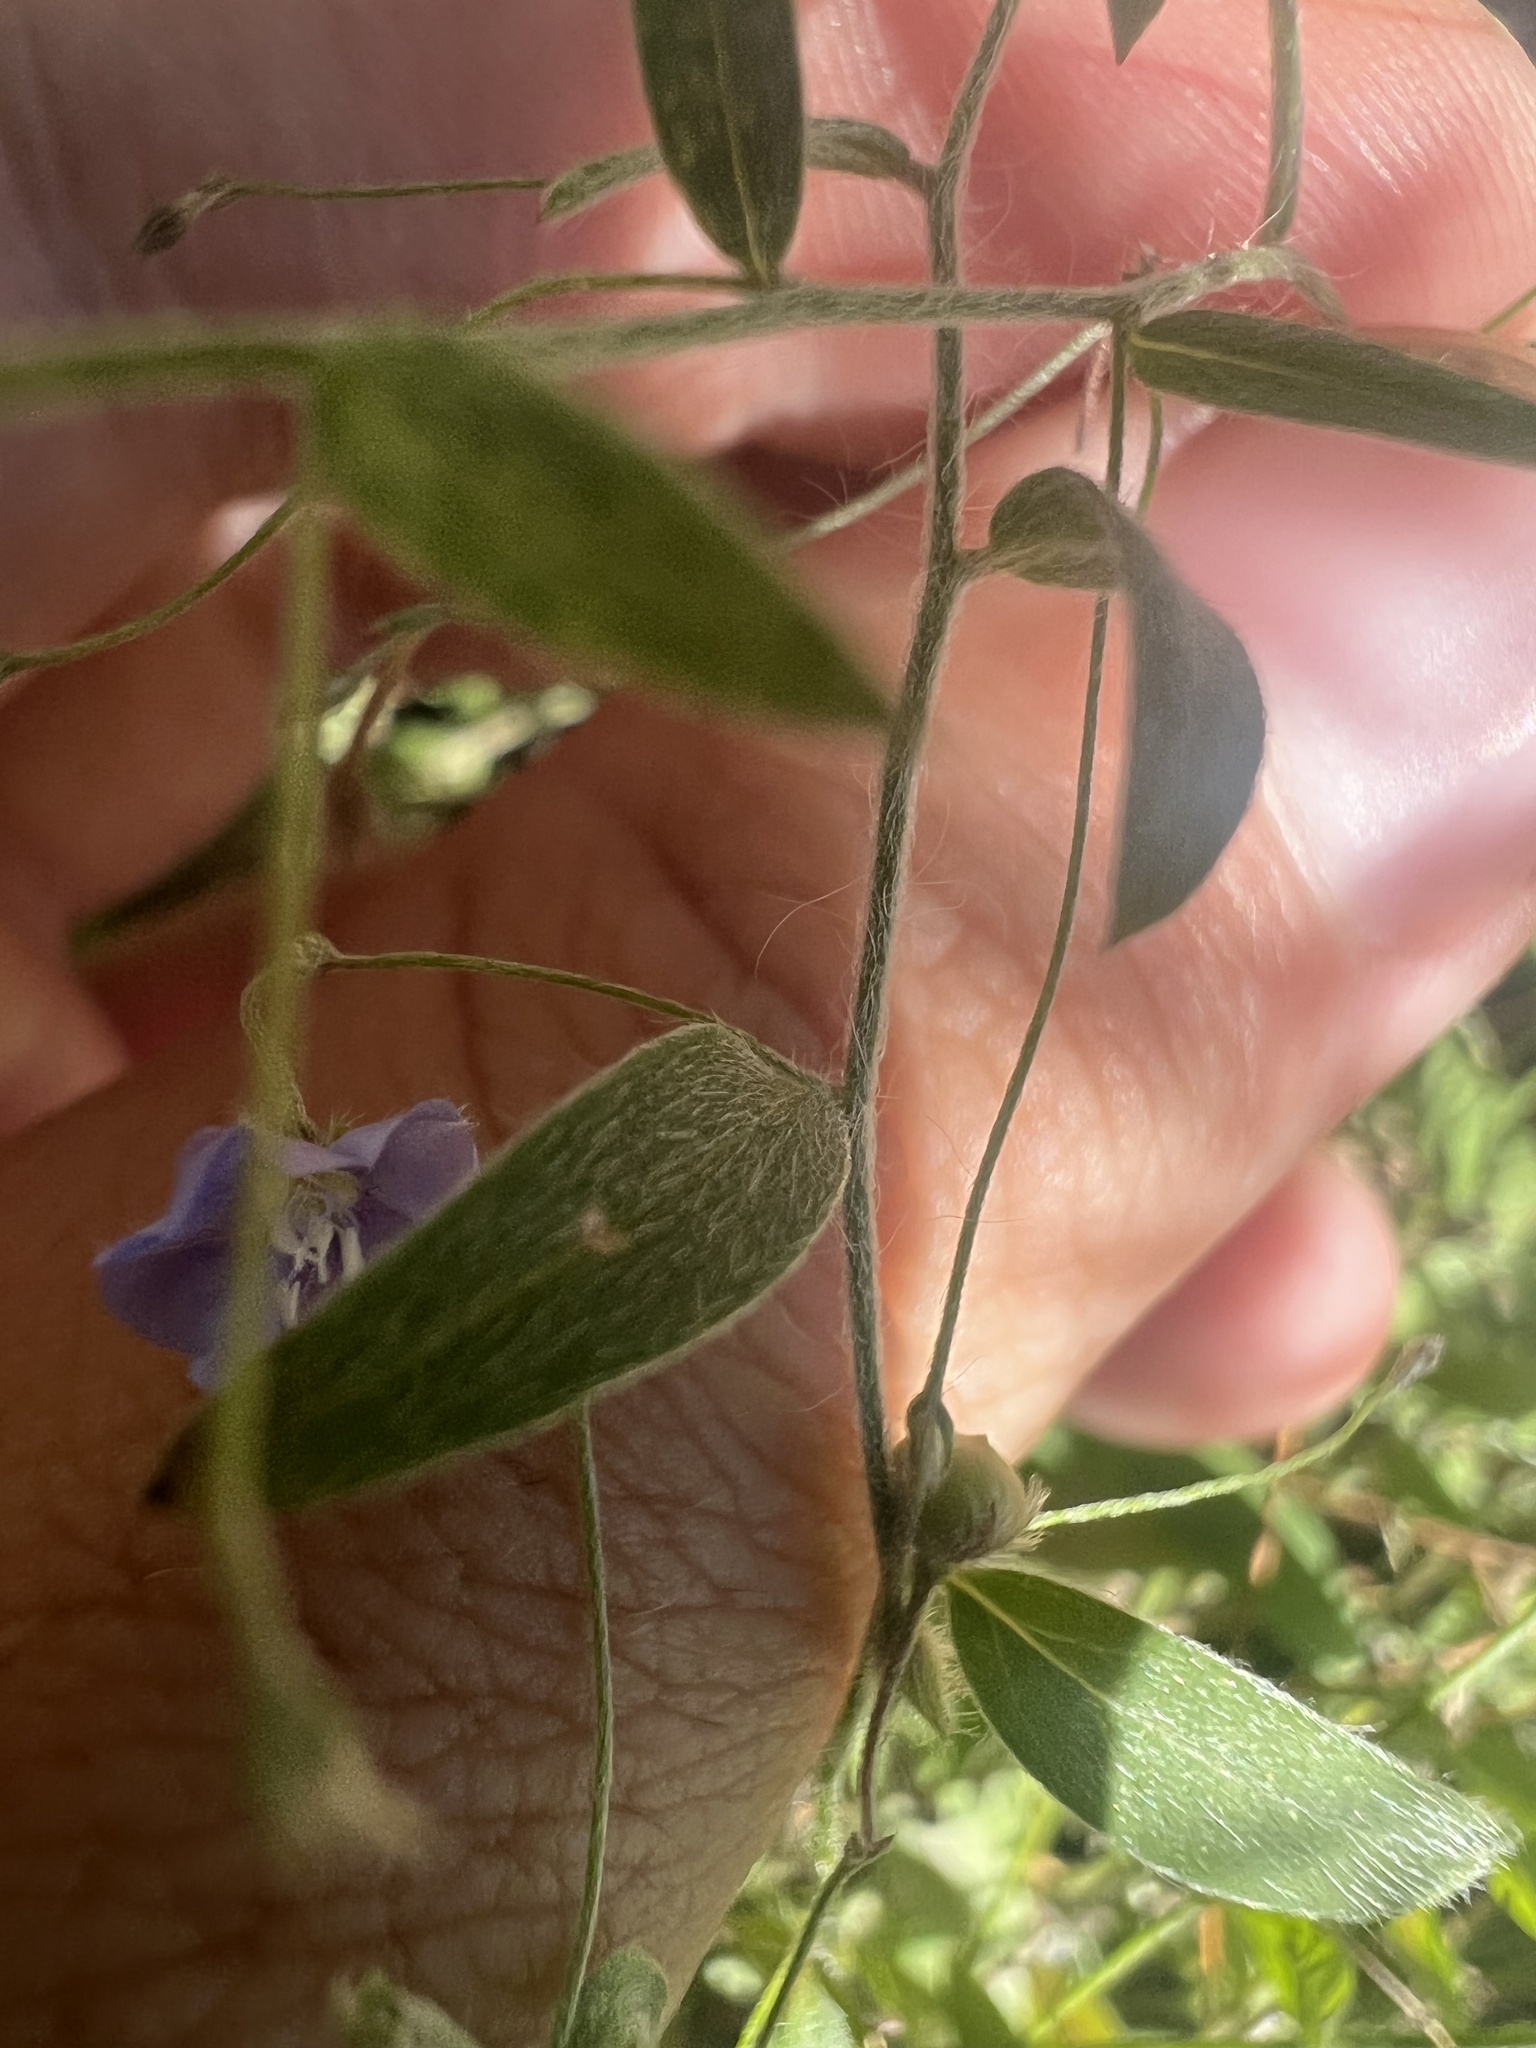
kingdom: Plantae
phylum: Tracheophyta
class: Magnoliopsida
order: Solanales
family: Convolvulaceae
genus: Evolvulus
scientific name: Evolvulus sericeus
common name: Blue dots
